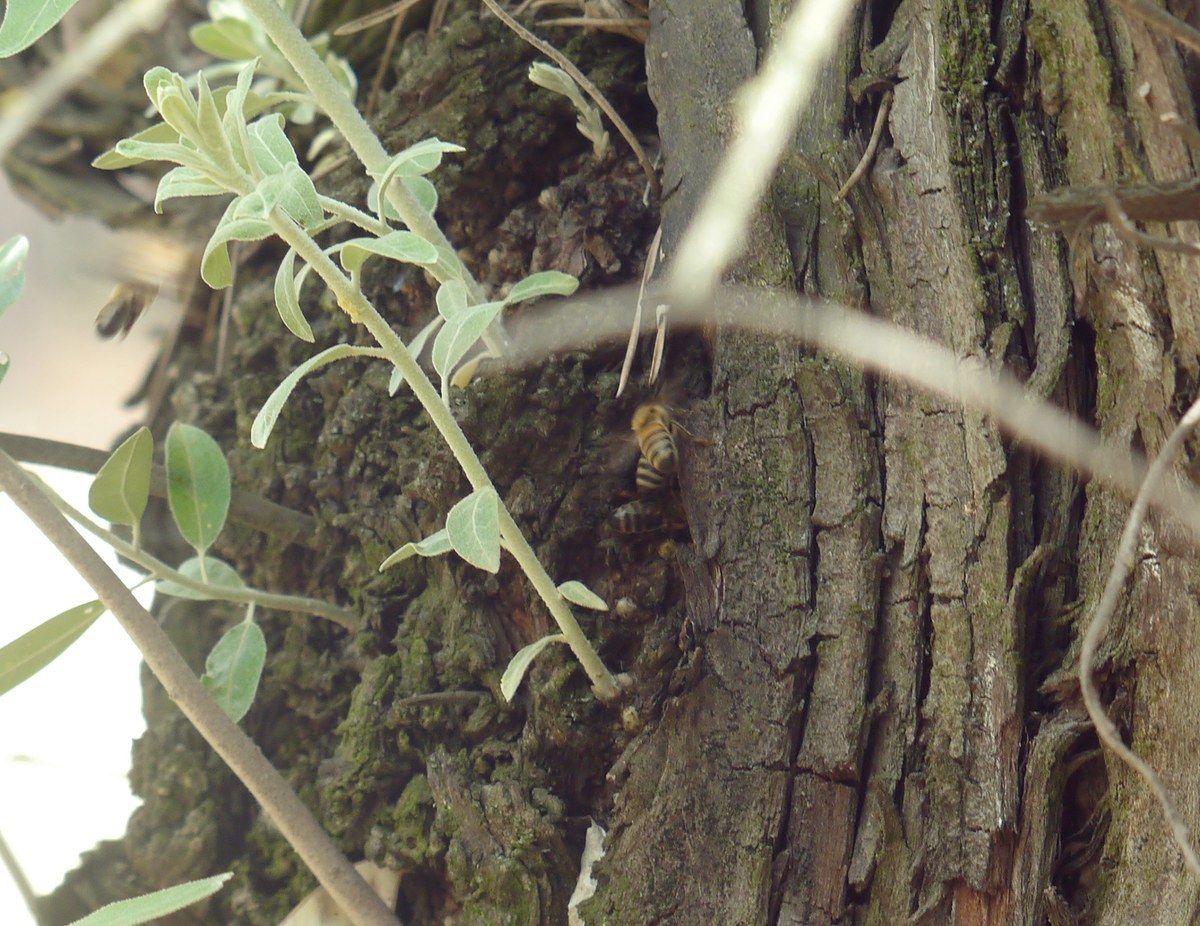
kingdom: Animalia
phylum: Arthropoda
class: Insecta
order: Hymenoptera
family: Apidae
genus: Apis
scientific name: Apis mellifera
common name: Honey bee
